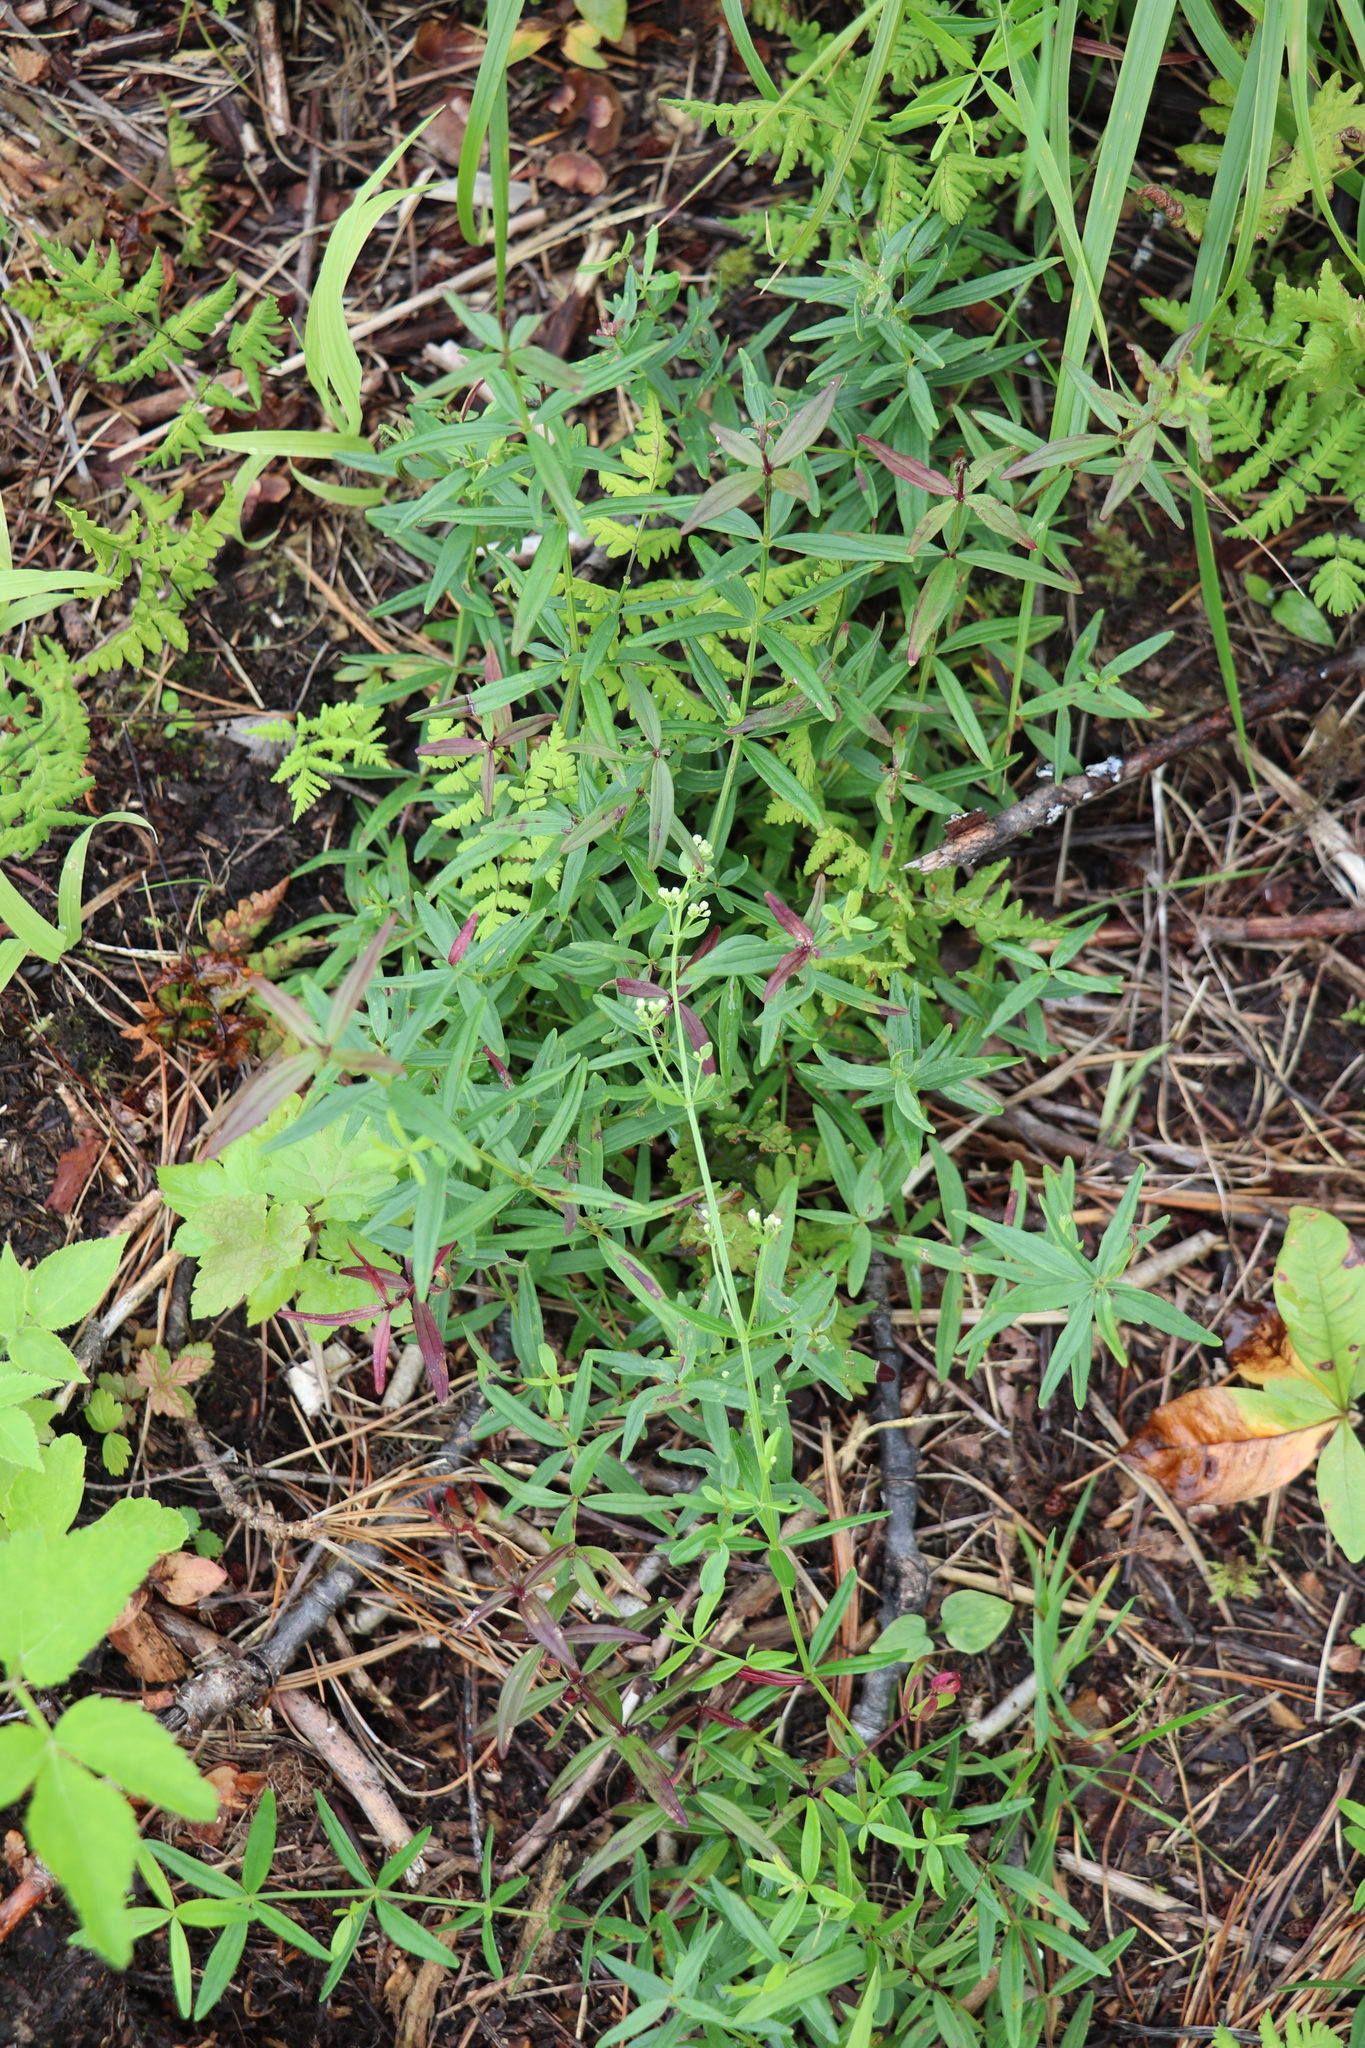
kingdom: Plantae
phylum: Tracheophyta
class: Magnoliopsida
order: Gentianales
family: Rubiaceae
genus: Galium
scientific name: Galium boreale
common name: Northern bedstraw
